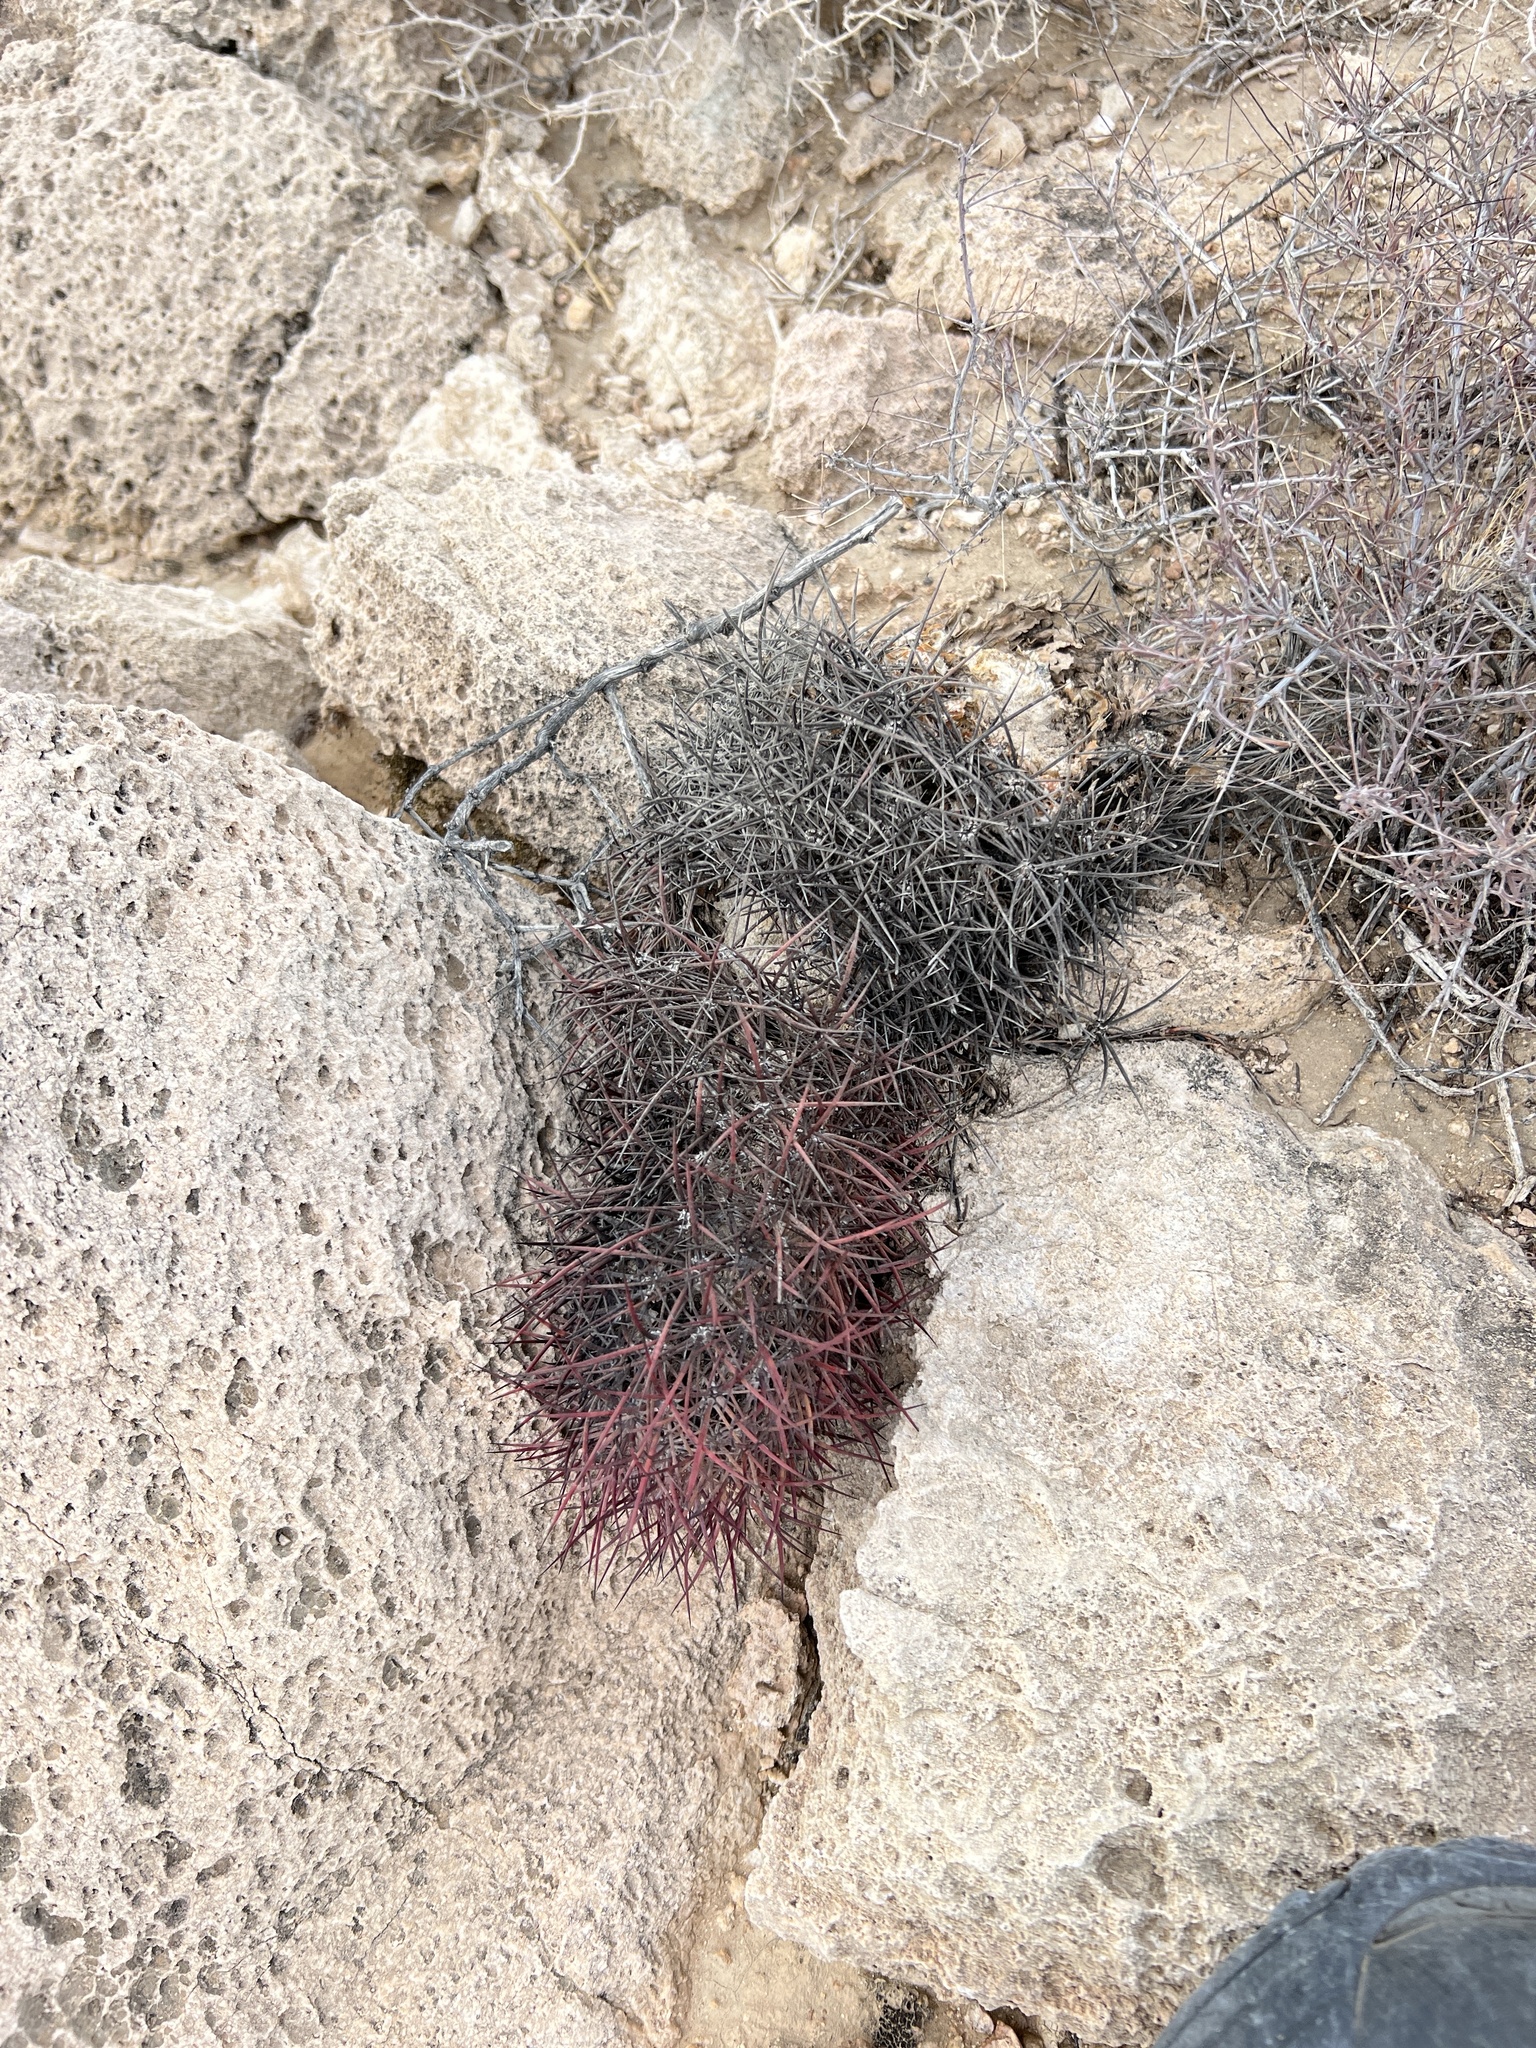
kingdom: Plantae
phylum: Tracheophyta
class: Magnoliopsida
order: Caryophyllales
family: Cactaceae
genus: Sclerocactus
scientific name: Sclerocactus johnsonii
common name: Eight-spine fishhook cactus
